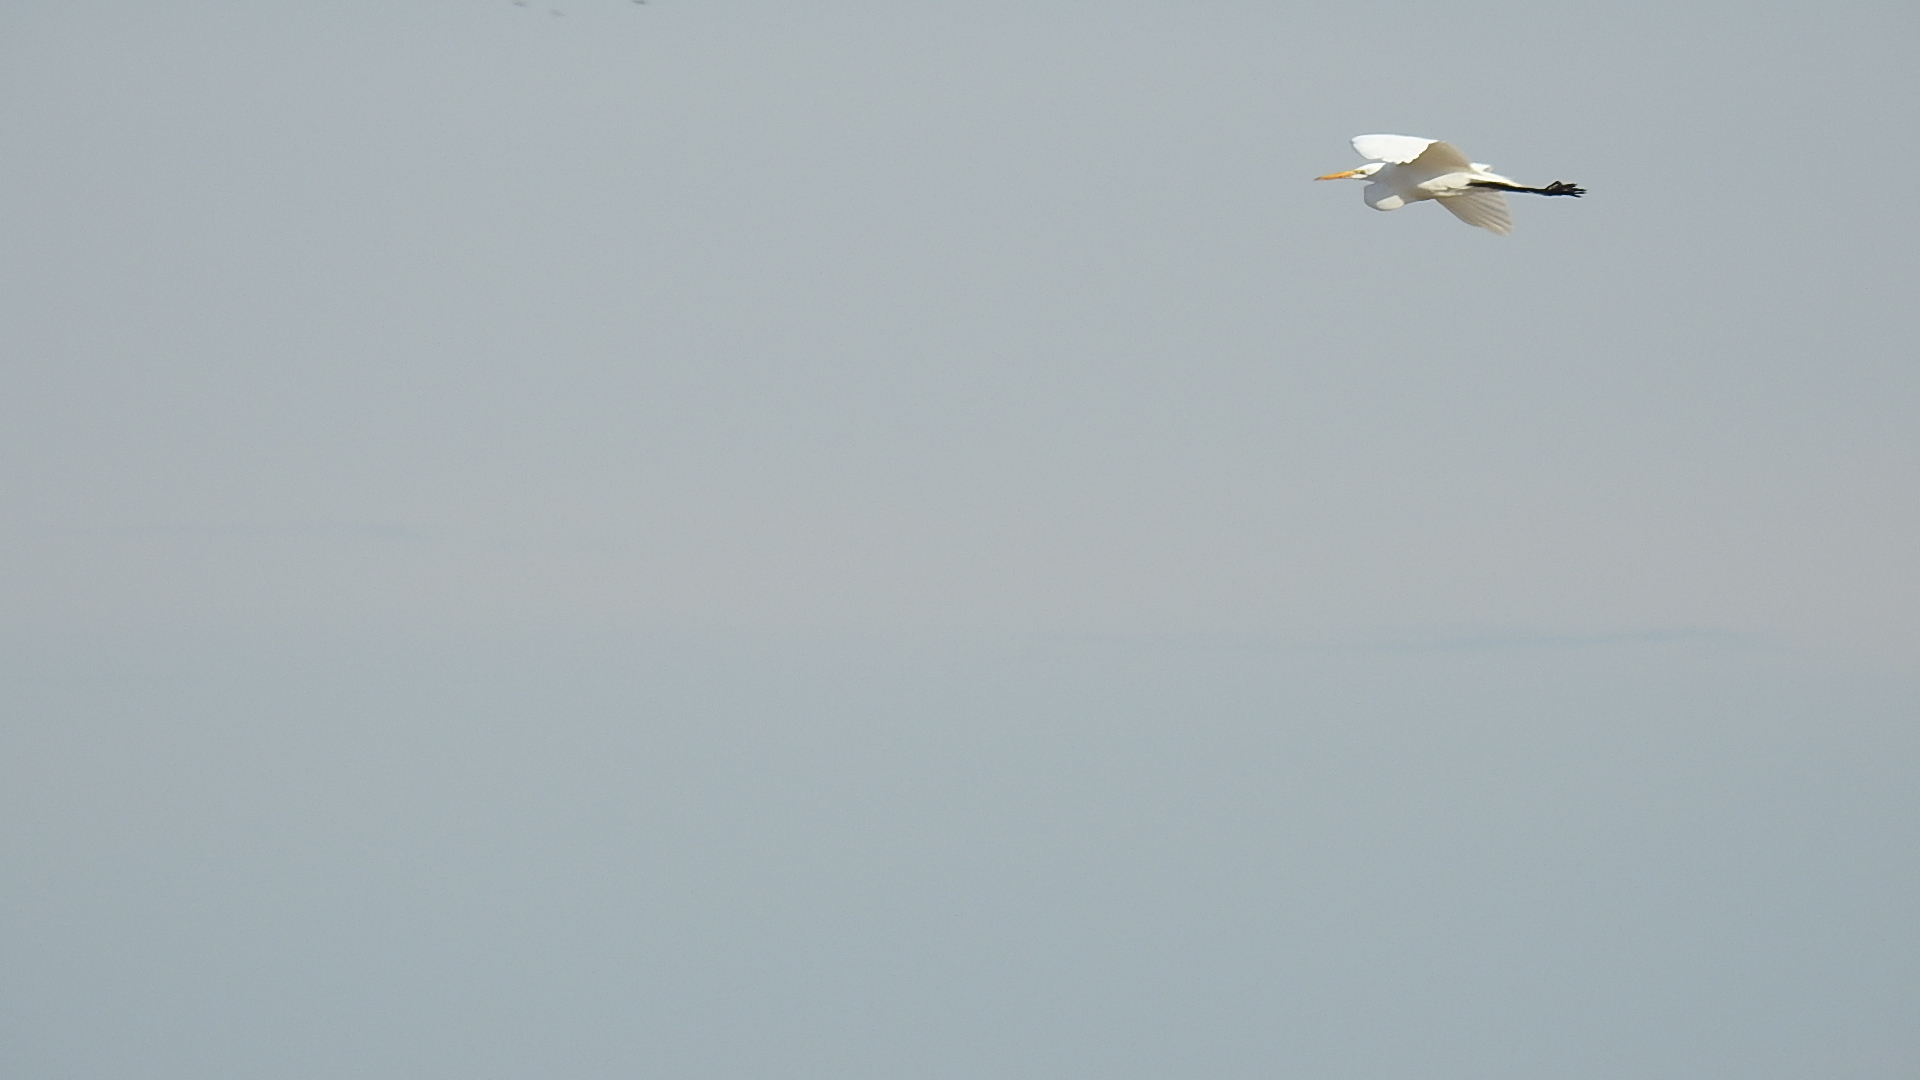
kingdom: Animalia
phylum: Chordata
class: Aves
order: Pelecaniformes
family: Ardeidae
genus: Ardea
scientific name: Ardea alba
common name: Great egret
